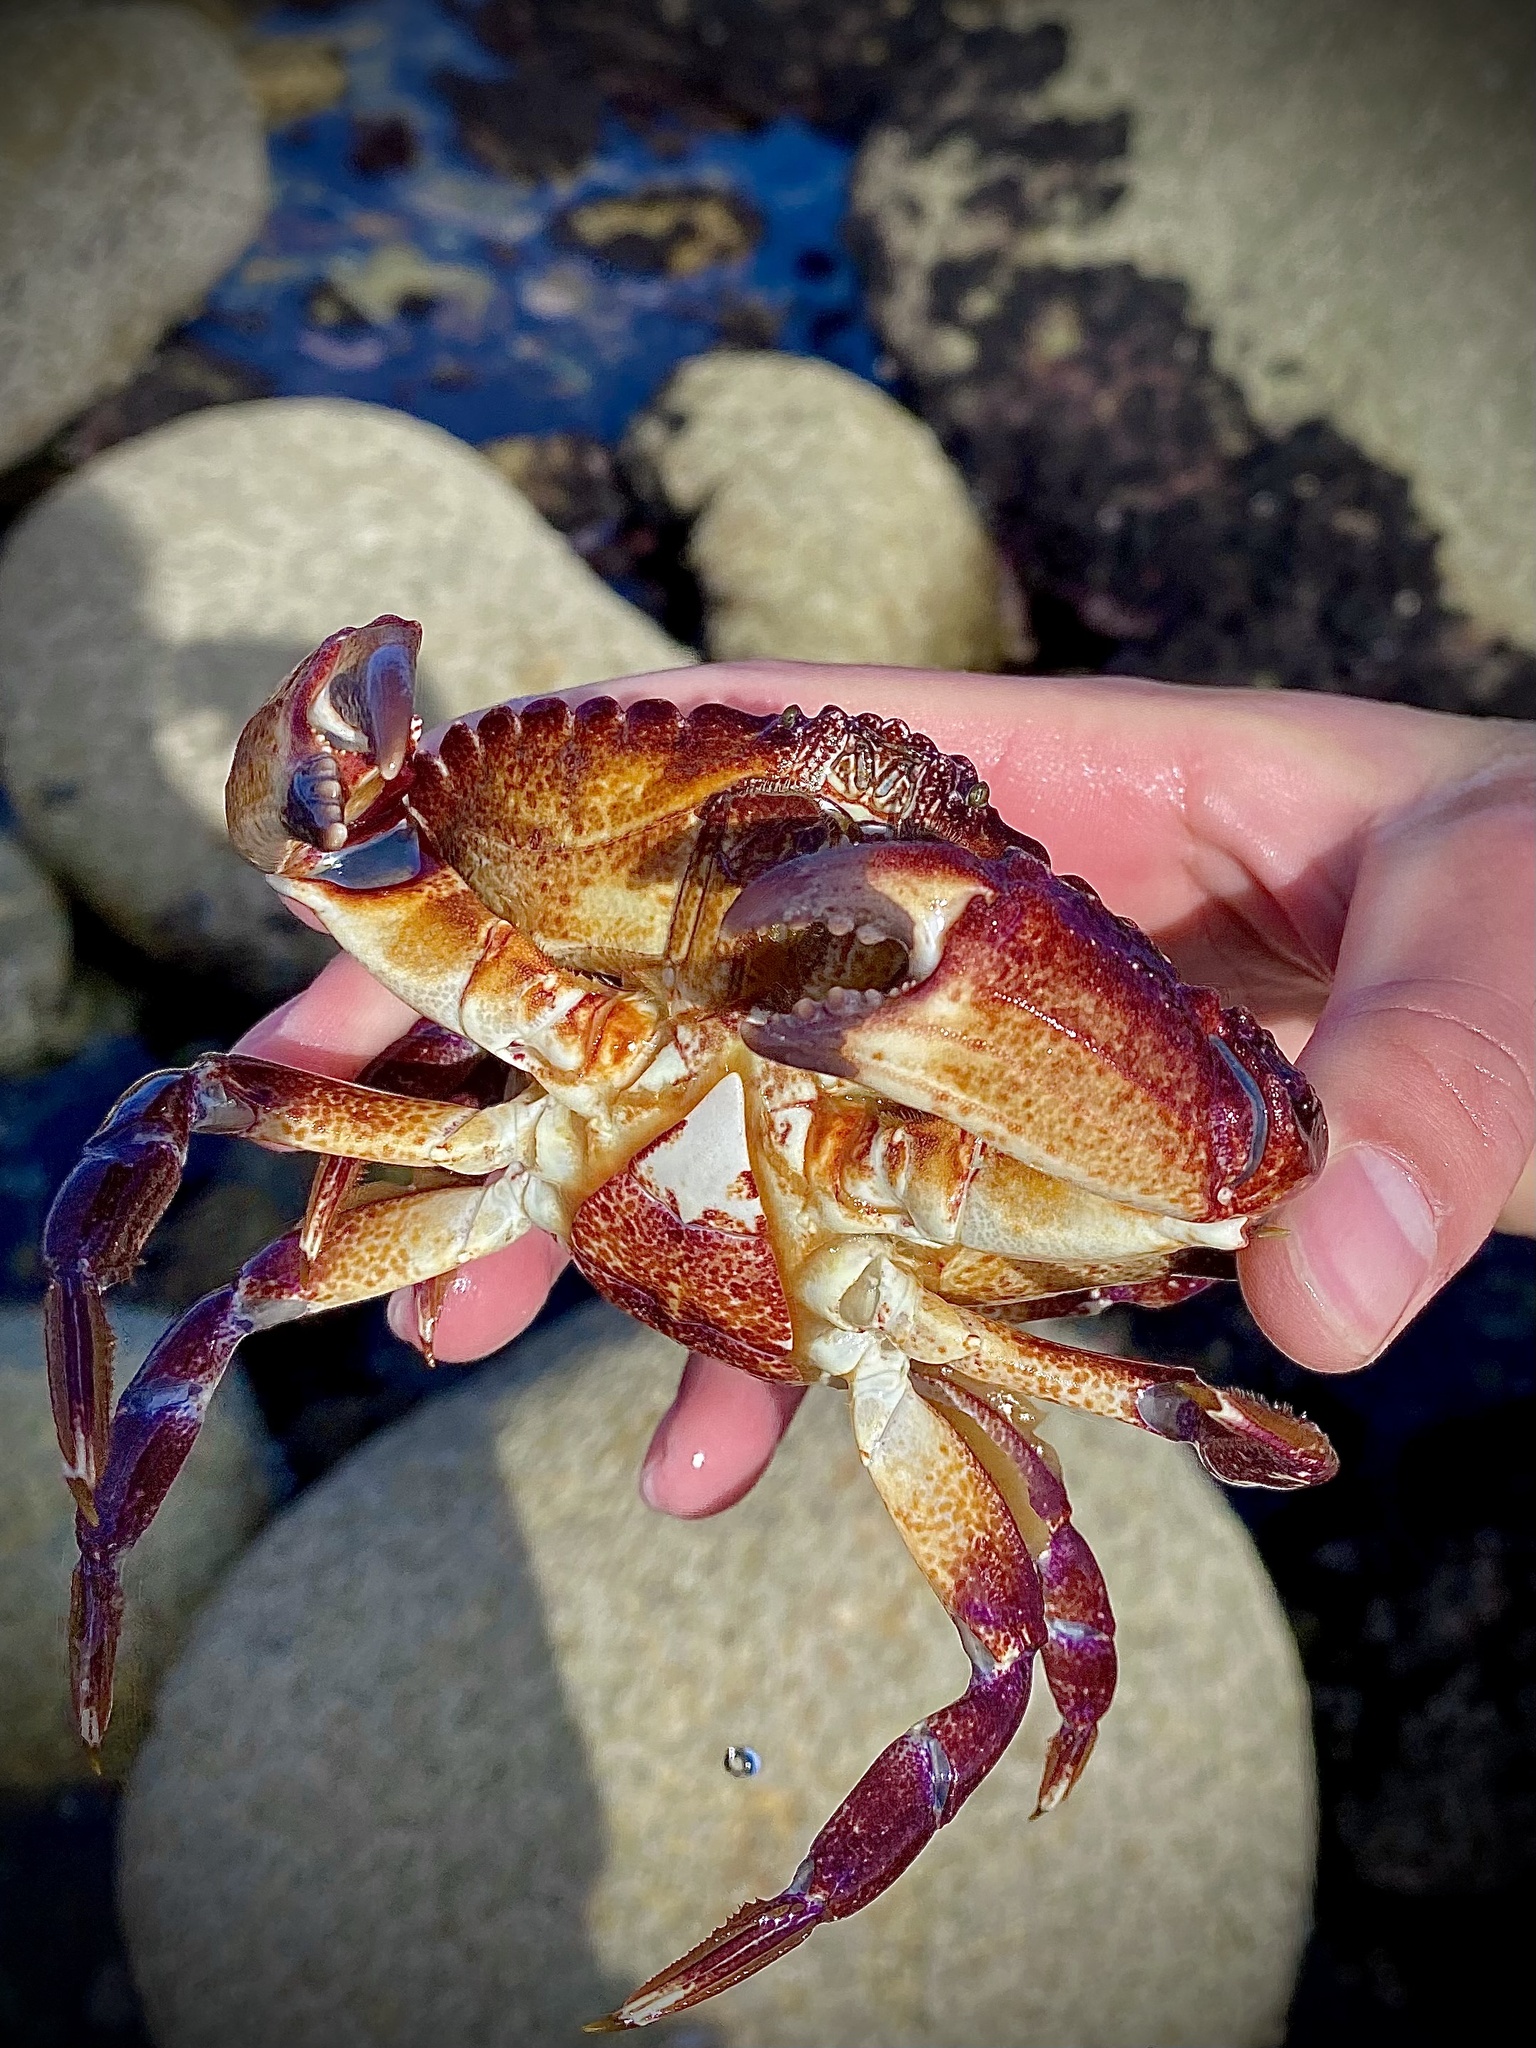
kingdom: Animalia
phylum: Arthropoda
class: Malacostraca
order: Decapoda
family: Cancridae
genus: Cancer
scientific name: Cancer productus
